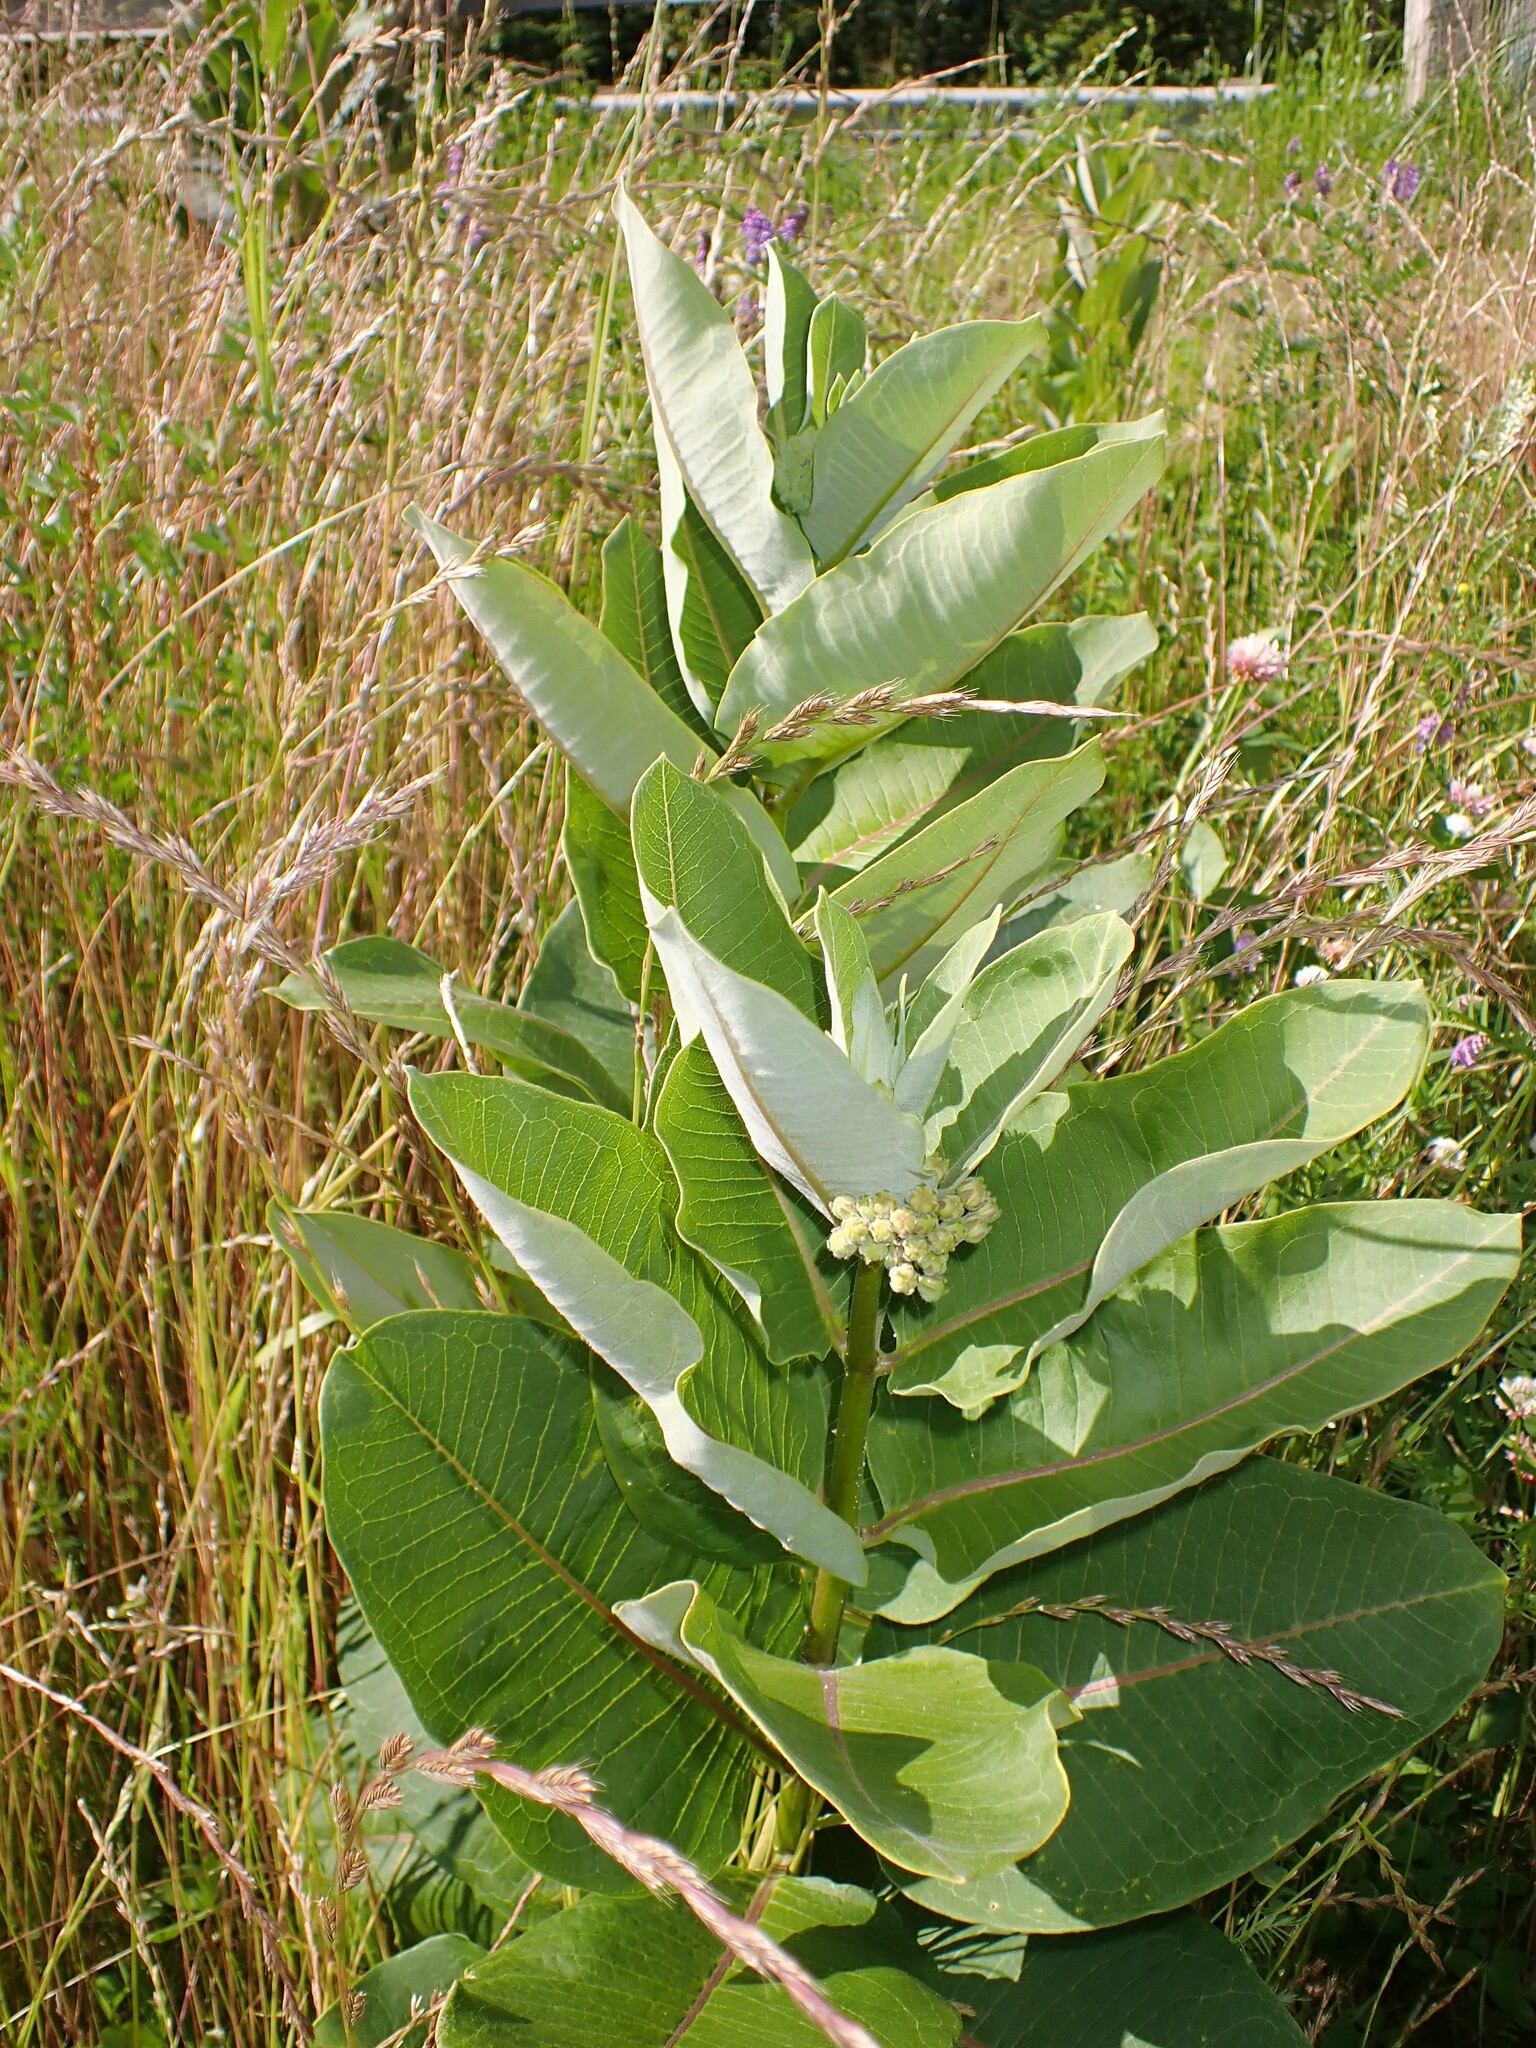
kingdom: Plantae
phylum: Tracheophyta
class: Magnoliopsida
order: Gentianales
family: Apocynaceae
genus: Asclepias
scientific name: Asclepias syriaca
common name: Common milkweed
